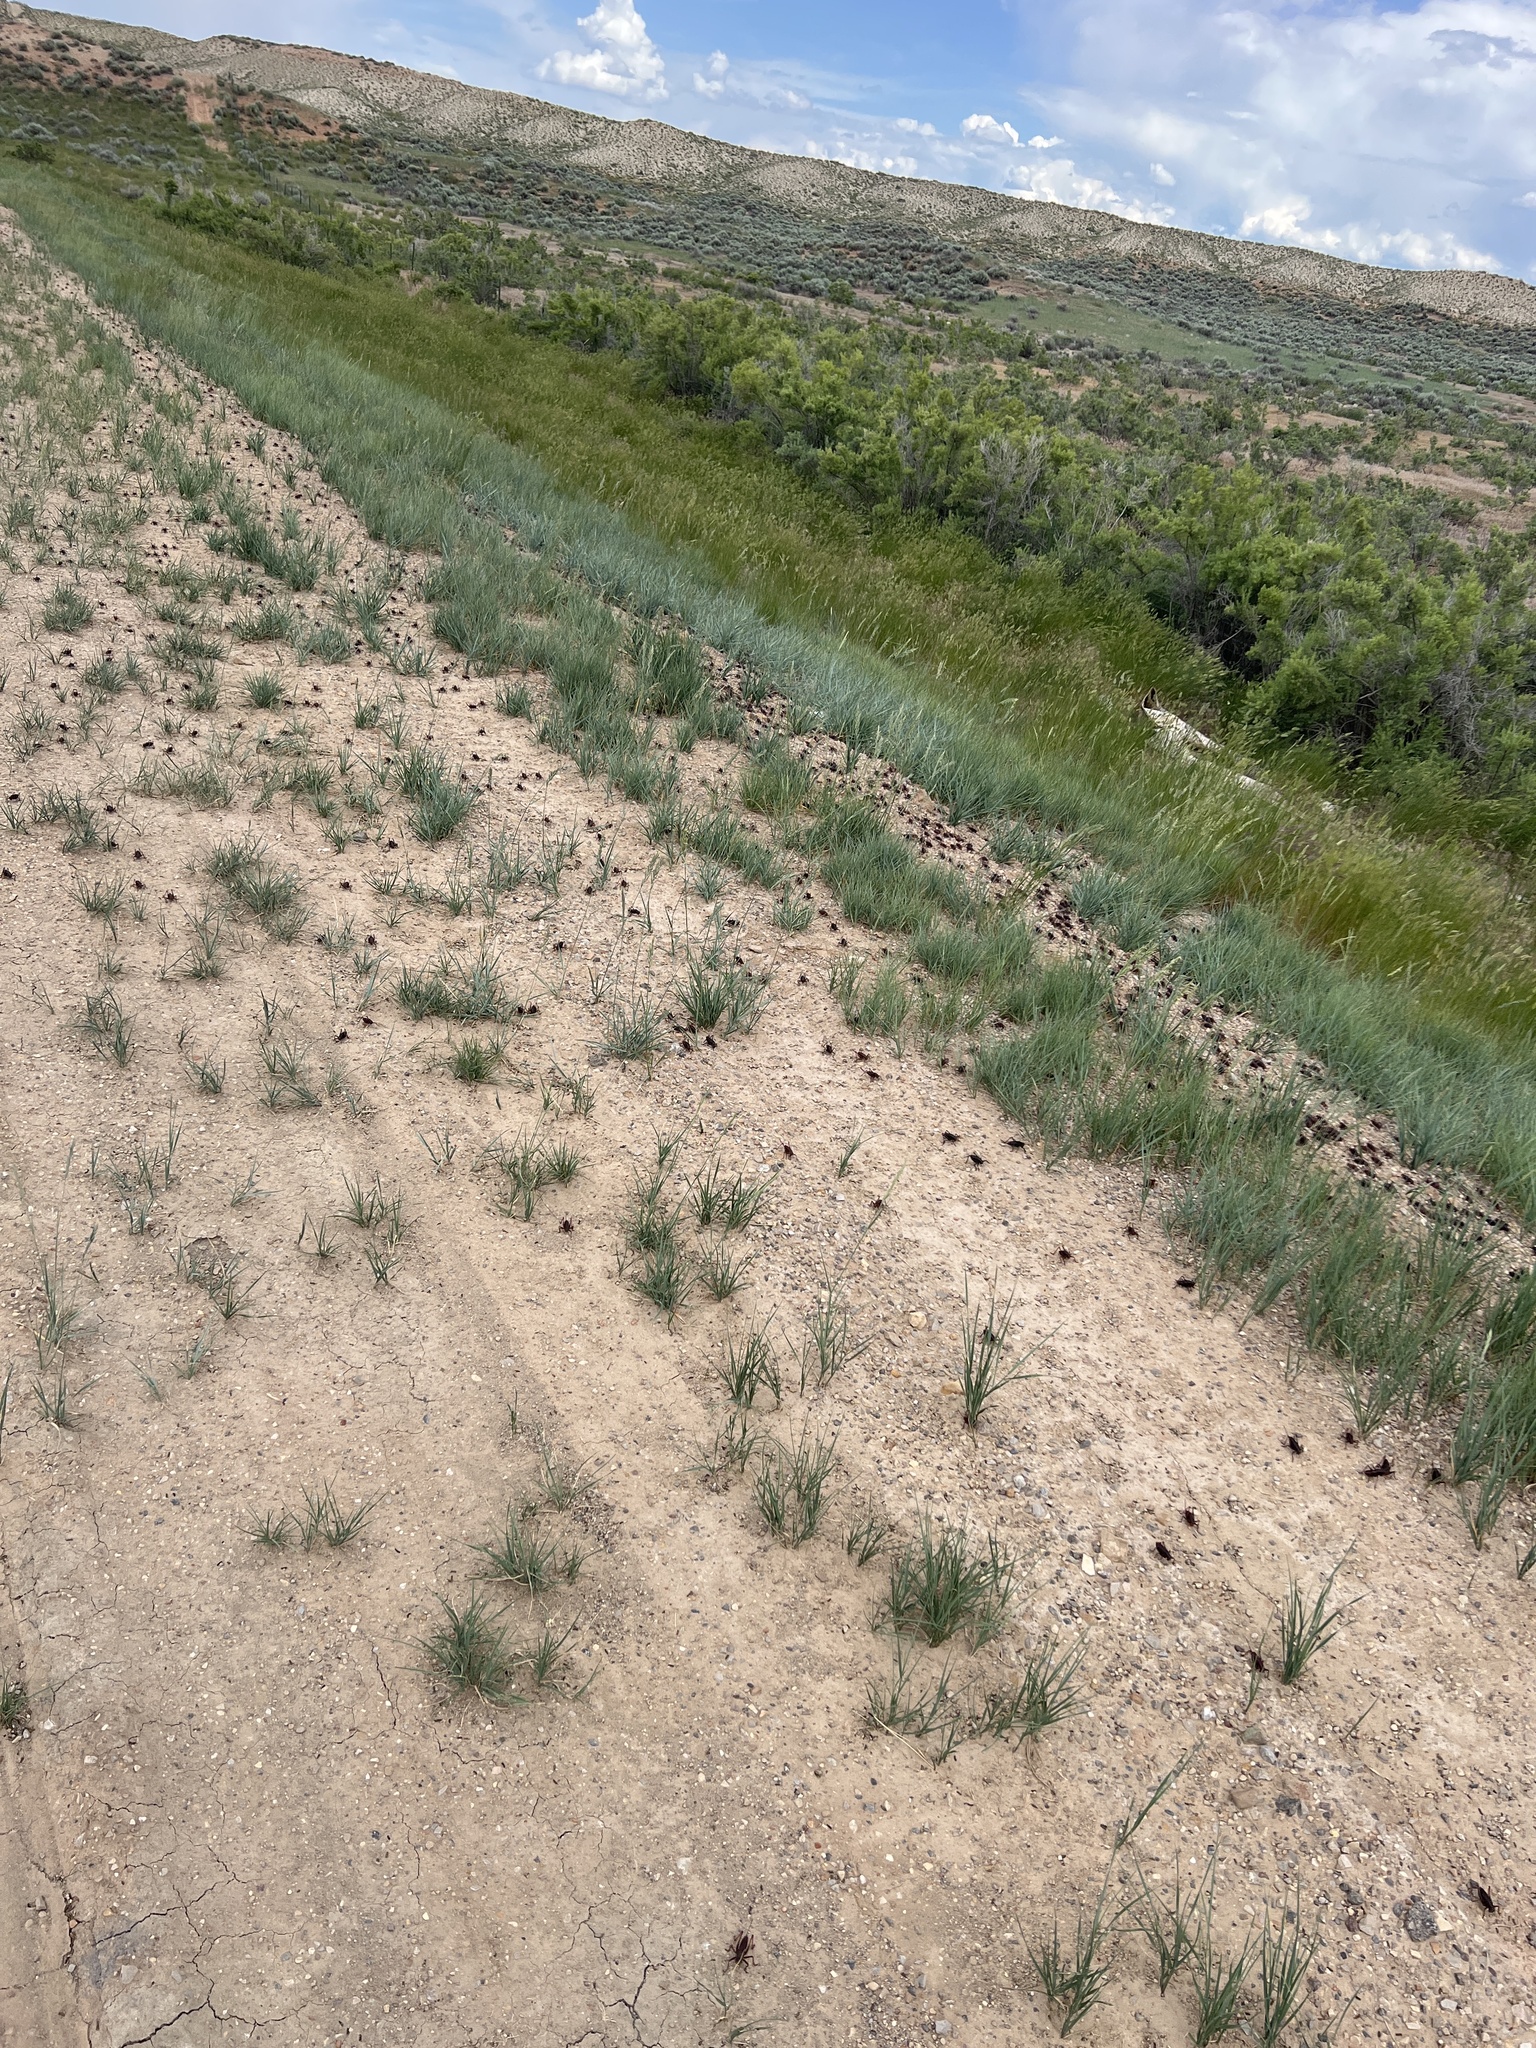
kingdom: Animalia
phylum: Arthropoda
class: Insecta
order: Orthoptera
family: Tettigoniidae
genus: Anabrus
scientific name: Anabrus simplex
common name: Mormon cricket
